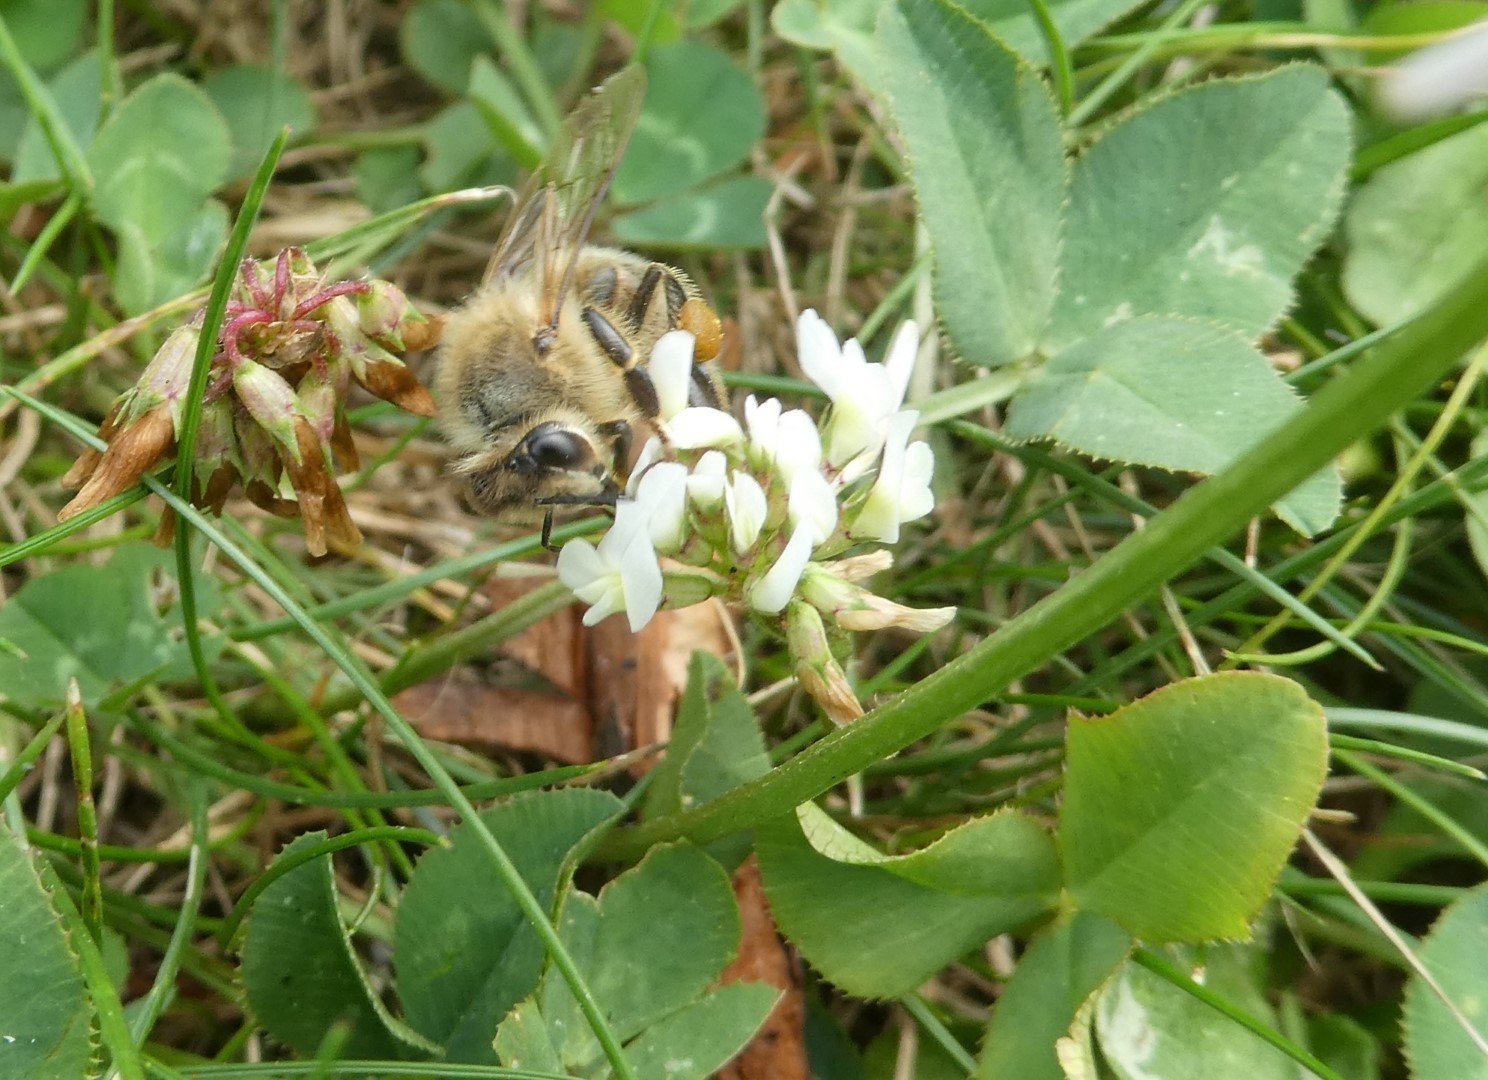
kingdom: Animalia
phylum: Arthropoda
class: Insecta
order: Hymenoptera
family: Apidae
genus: Apis
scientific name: Apis mellifera
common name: Honey bee
